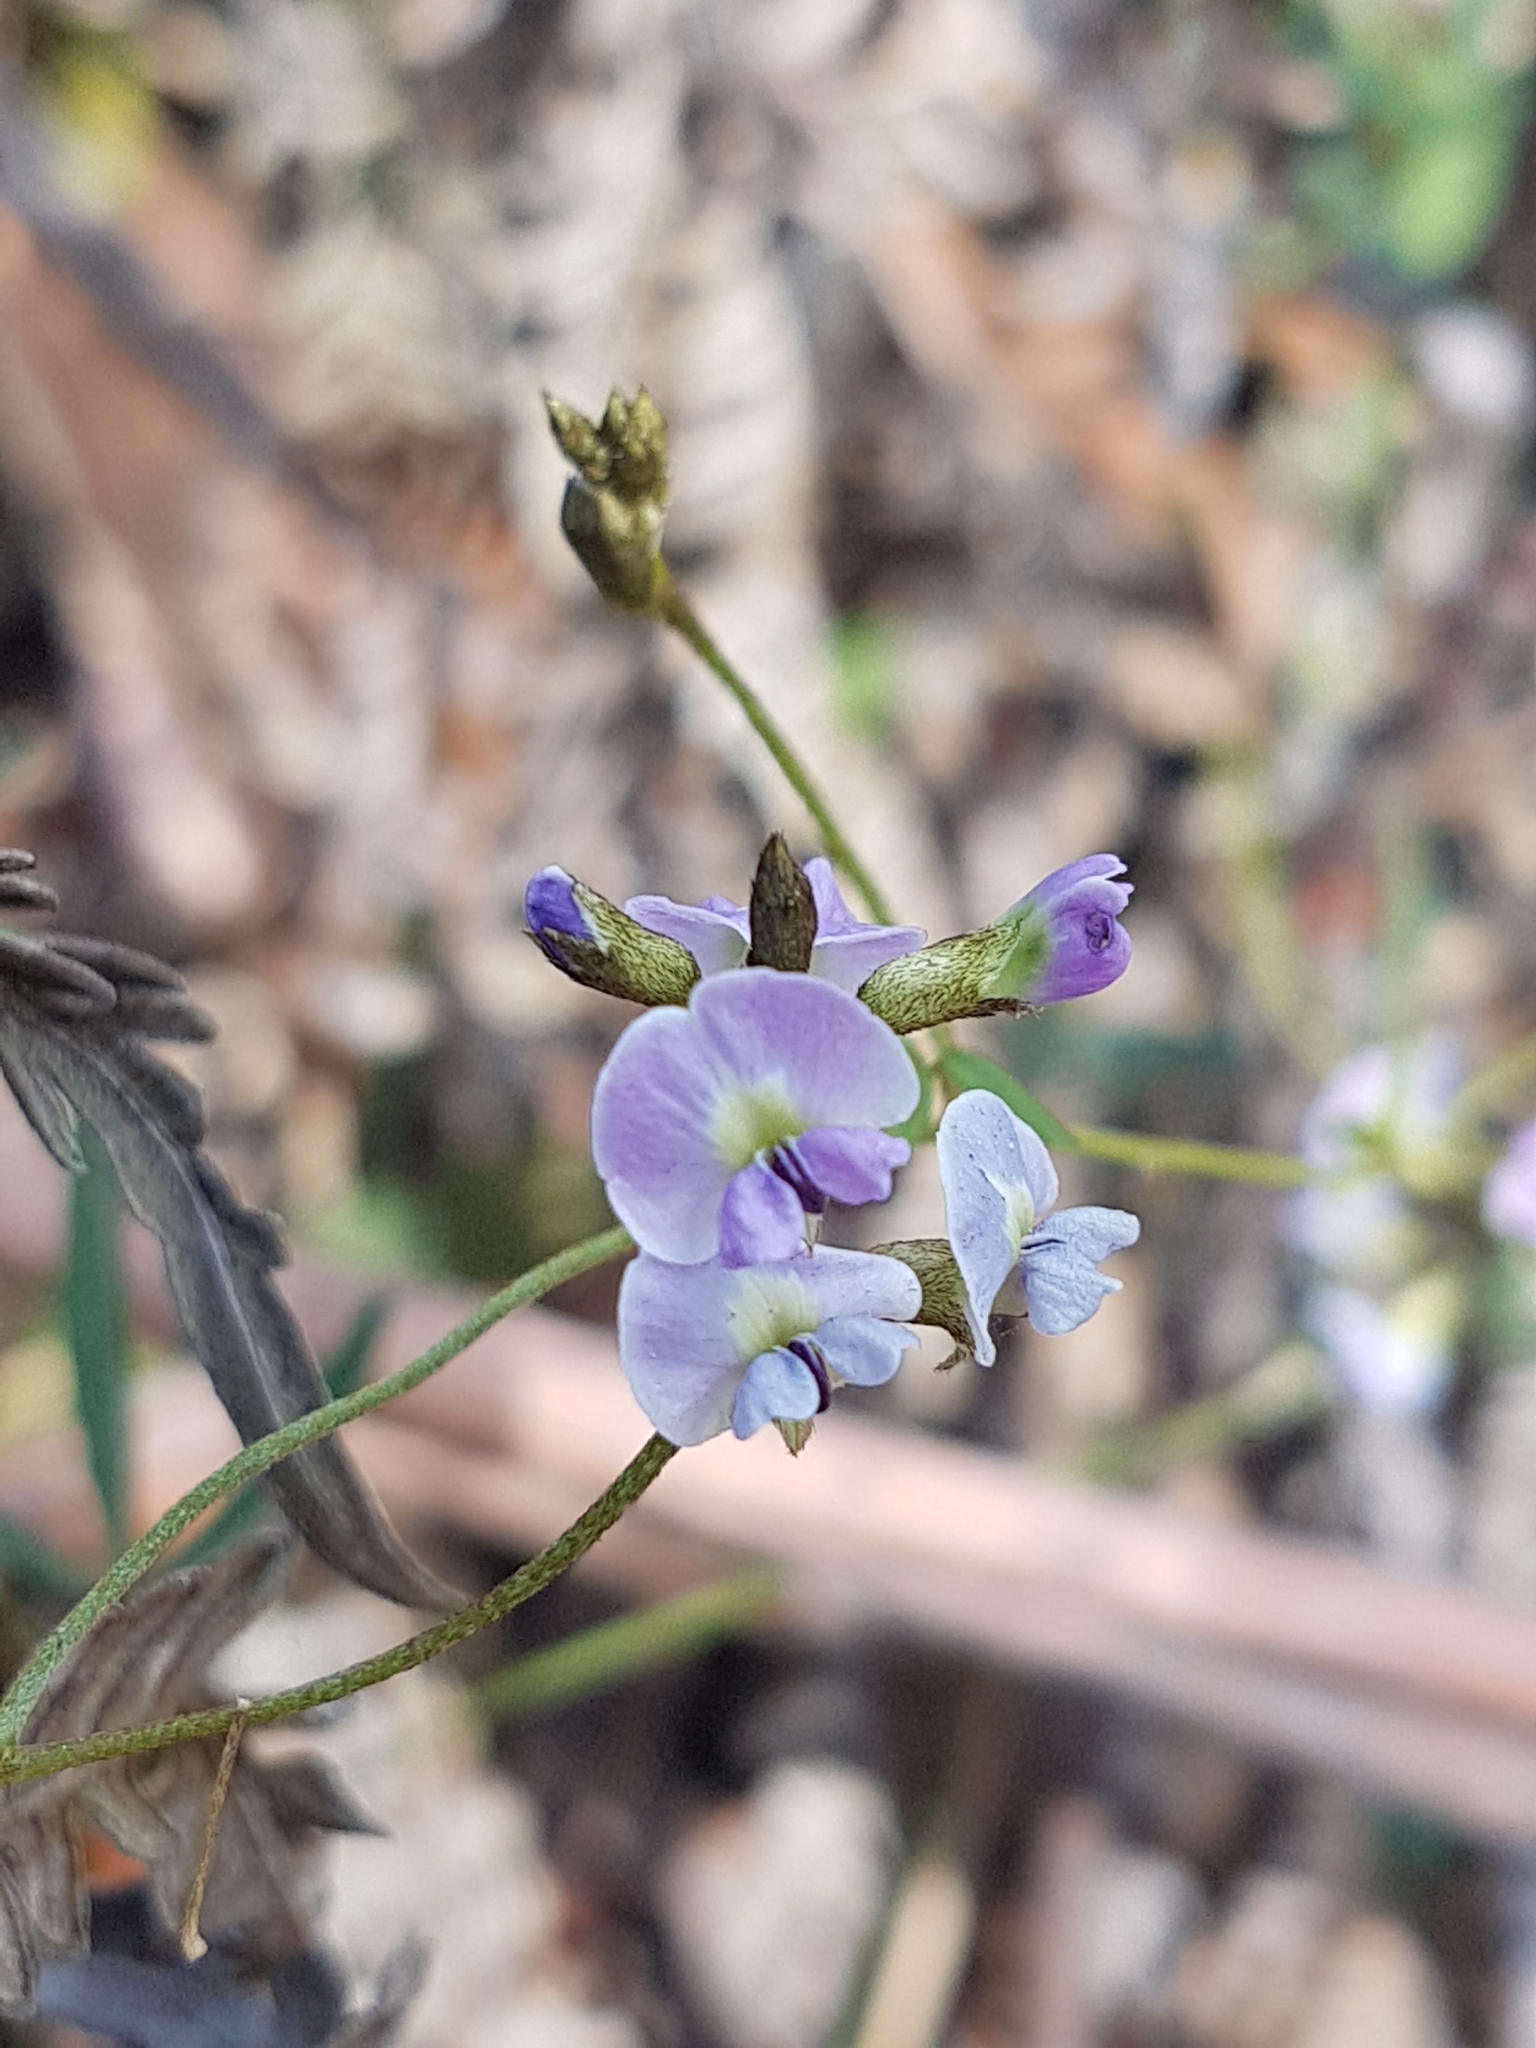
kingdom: Plantae
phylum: Tracheophyta
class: Magnoliopsida
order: Fabales
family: Fabaceae
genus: Glycine
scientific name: Glycine clandestina
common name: Twining glycine
